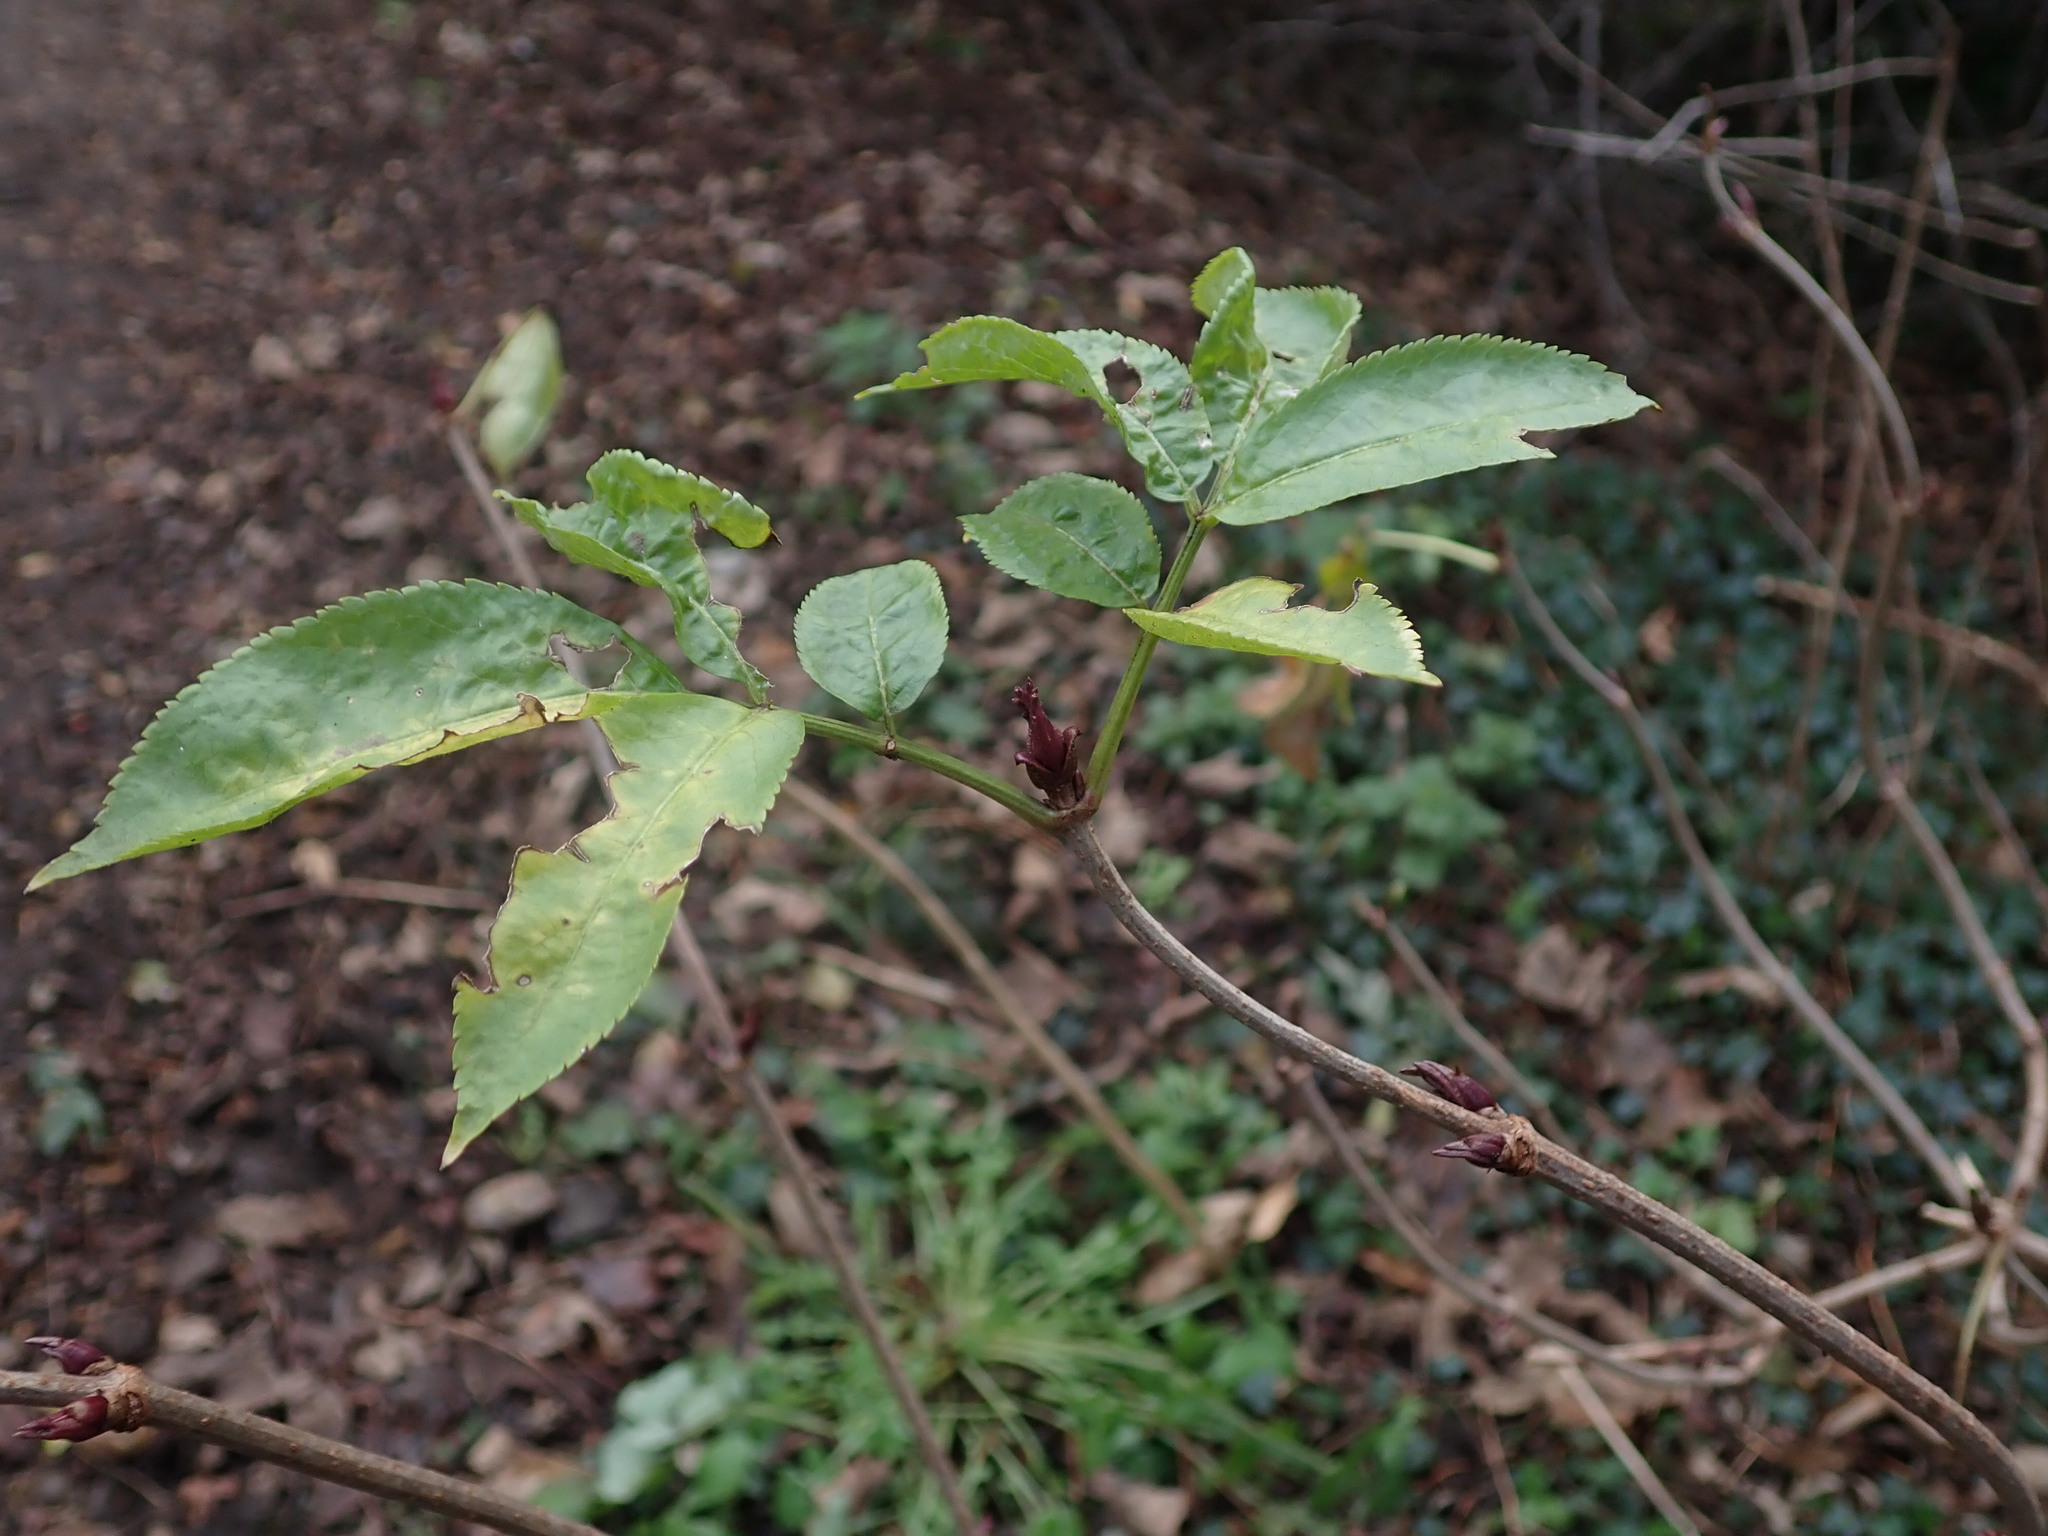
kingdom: Plantae
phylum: Tracheophyta
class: Magnoliopsida
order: Dipsacales
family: Viburnaceae
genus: Sambucus
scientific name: Sambucus nigra
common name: Elder
